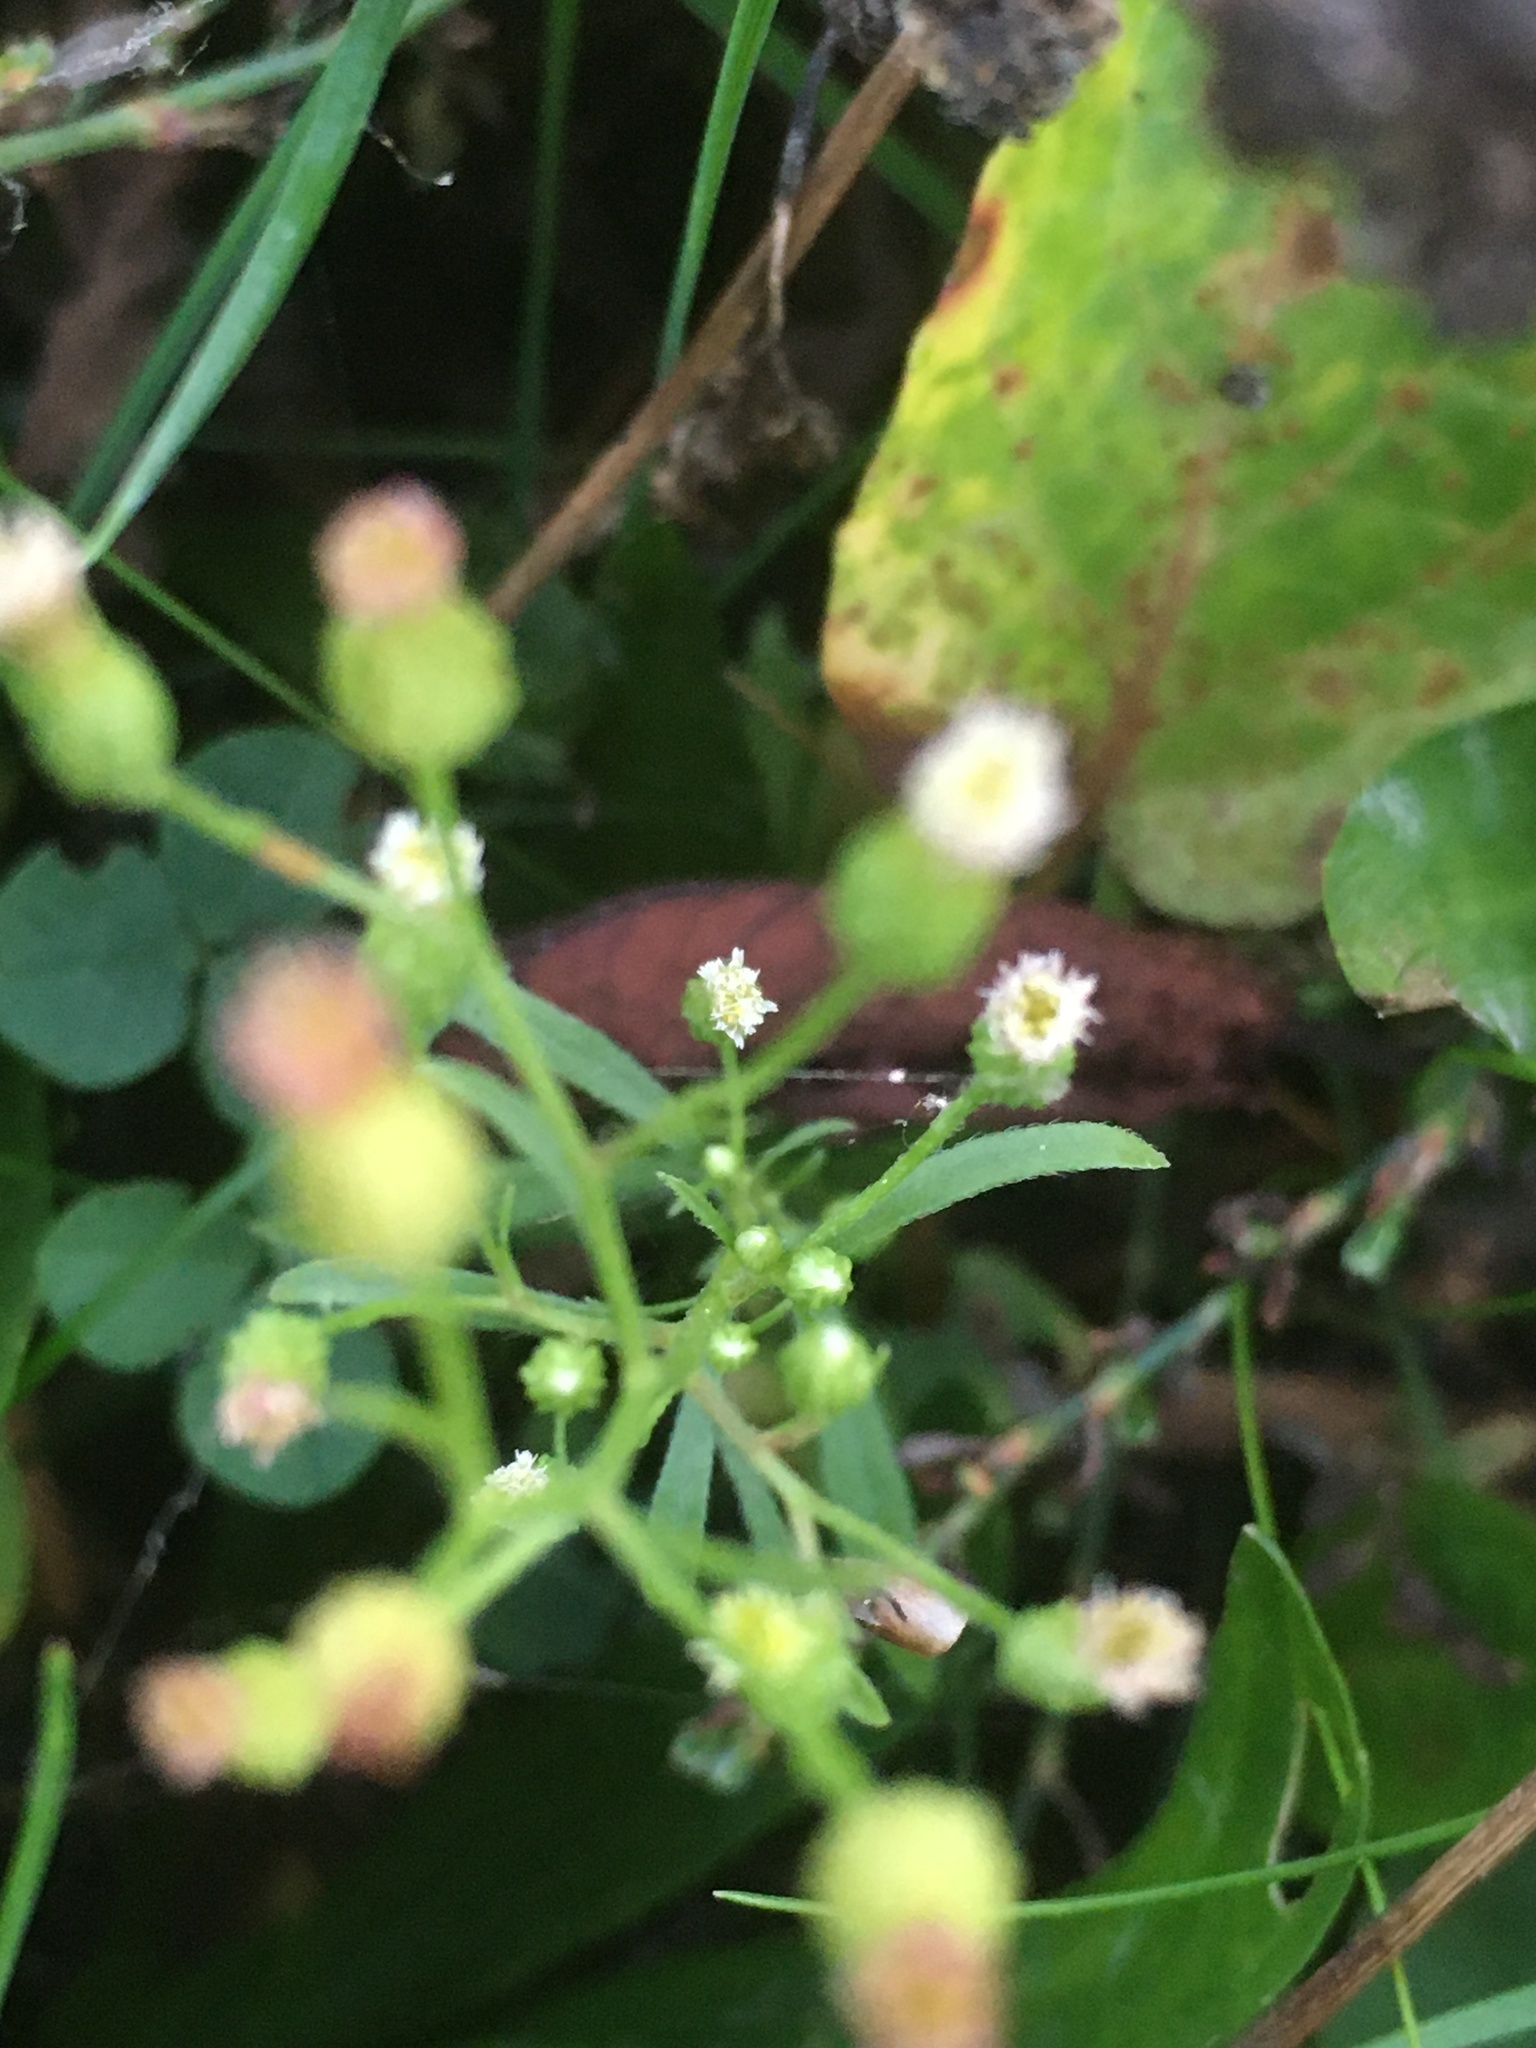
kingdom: Plantae
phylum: Tracheophyta
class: Magnoliopsida
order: Asterales
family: Asteraceae
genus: Erigeron
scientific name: Erigeron canadensis
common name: Canadian fleabane
